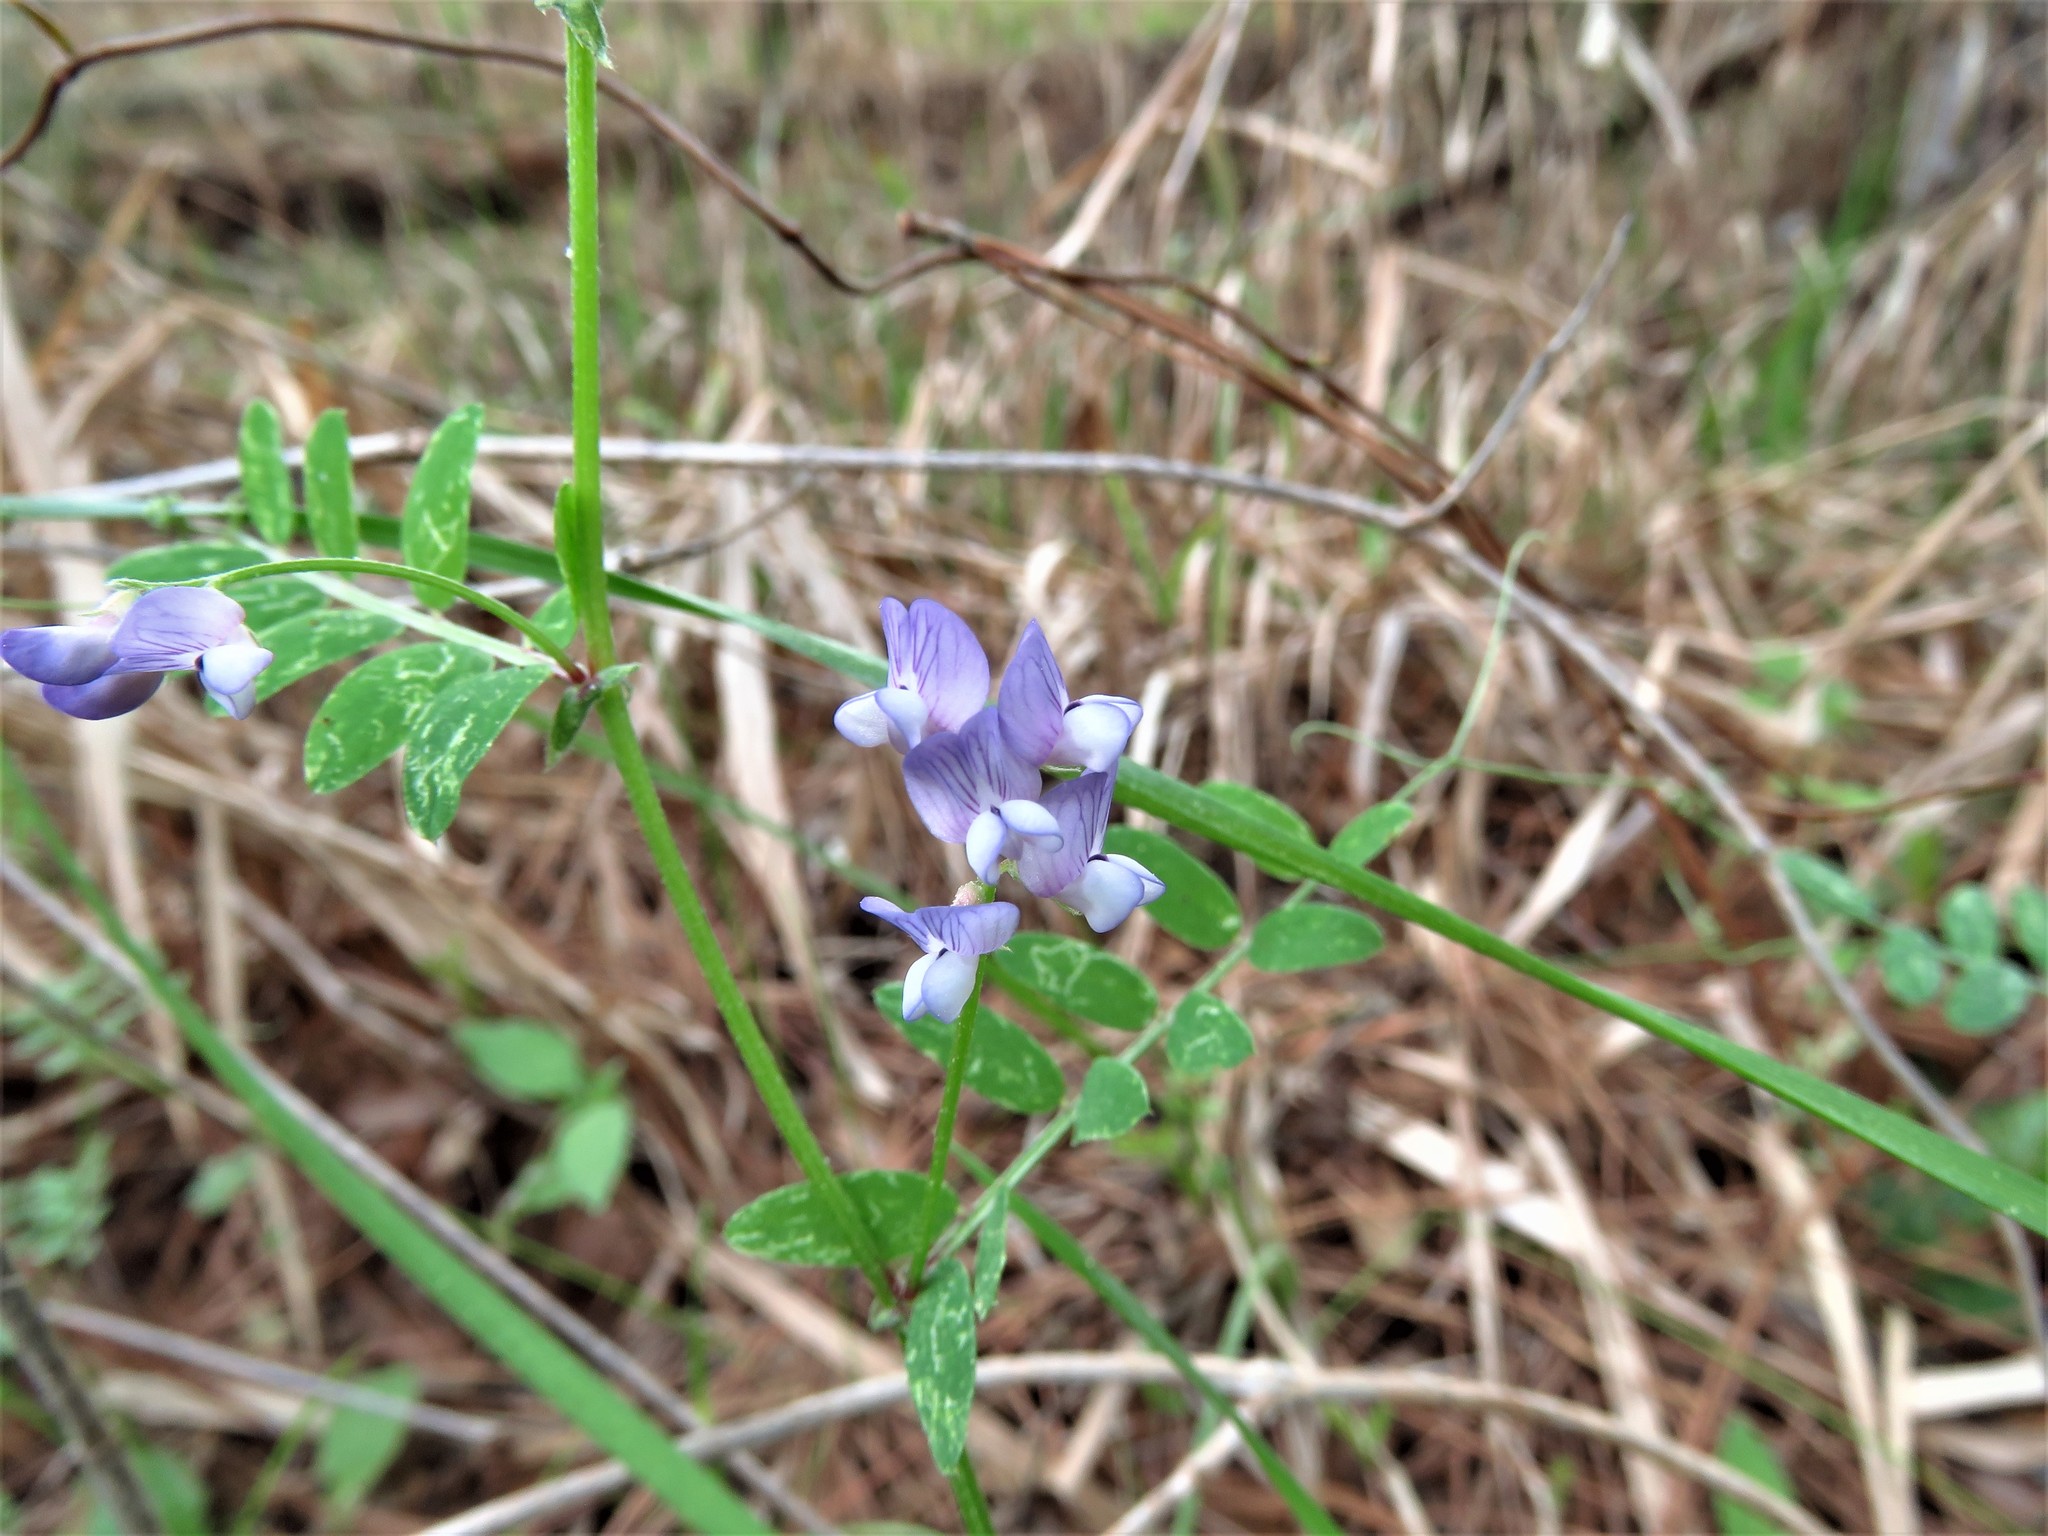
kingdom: Plantae
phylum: Tracheophyta
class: Magnoliopsida
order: Fabales
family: Fabaceae
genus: Vicia
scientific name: Vicia ludoviciana
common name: Louisiana vetch
